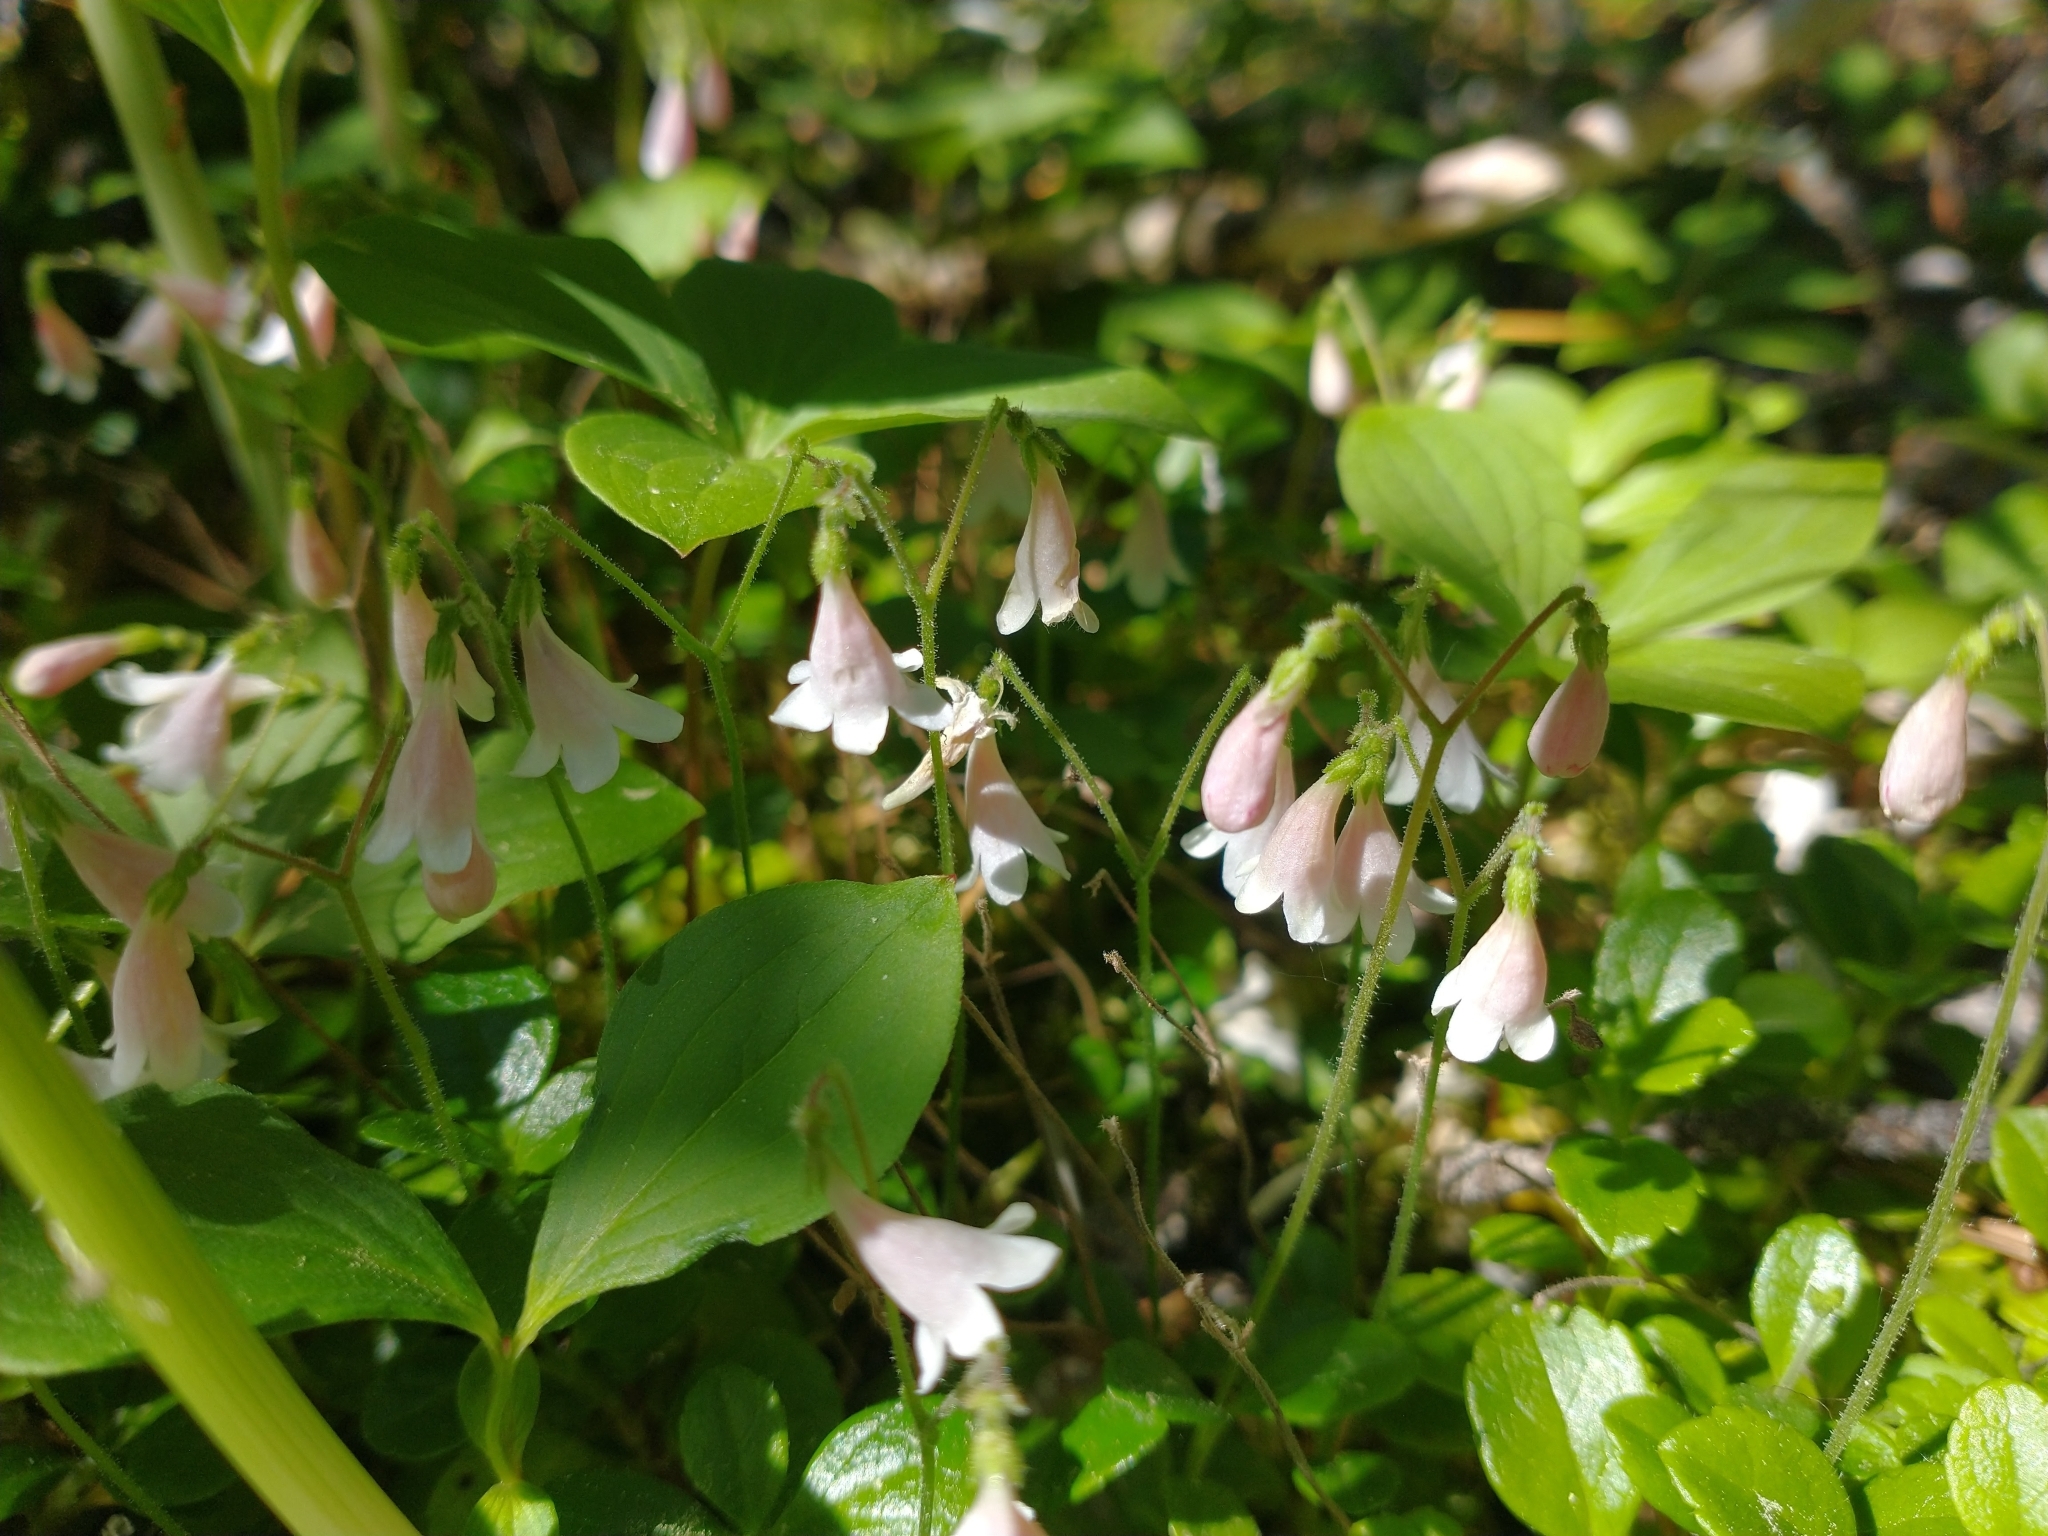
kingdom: Plantae
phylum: Tracheophyta
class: Magnoliopsida
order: Dipsacales
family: Caprifoliaceae
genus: Linnaea
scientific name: Linnaea borealis
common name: Twinflower
